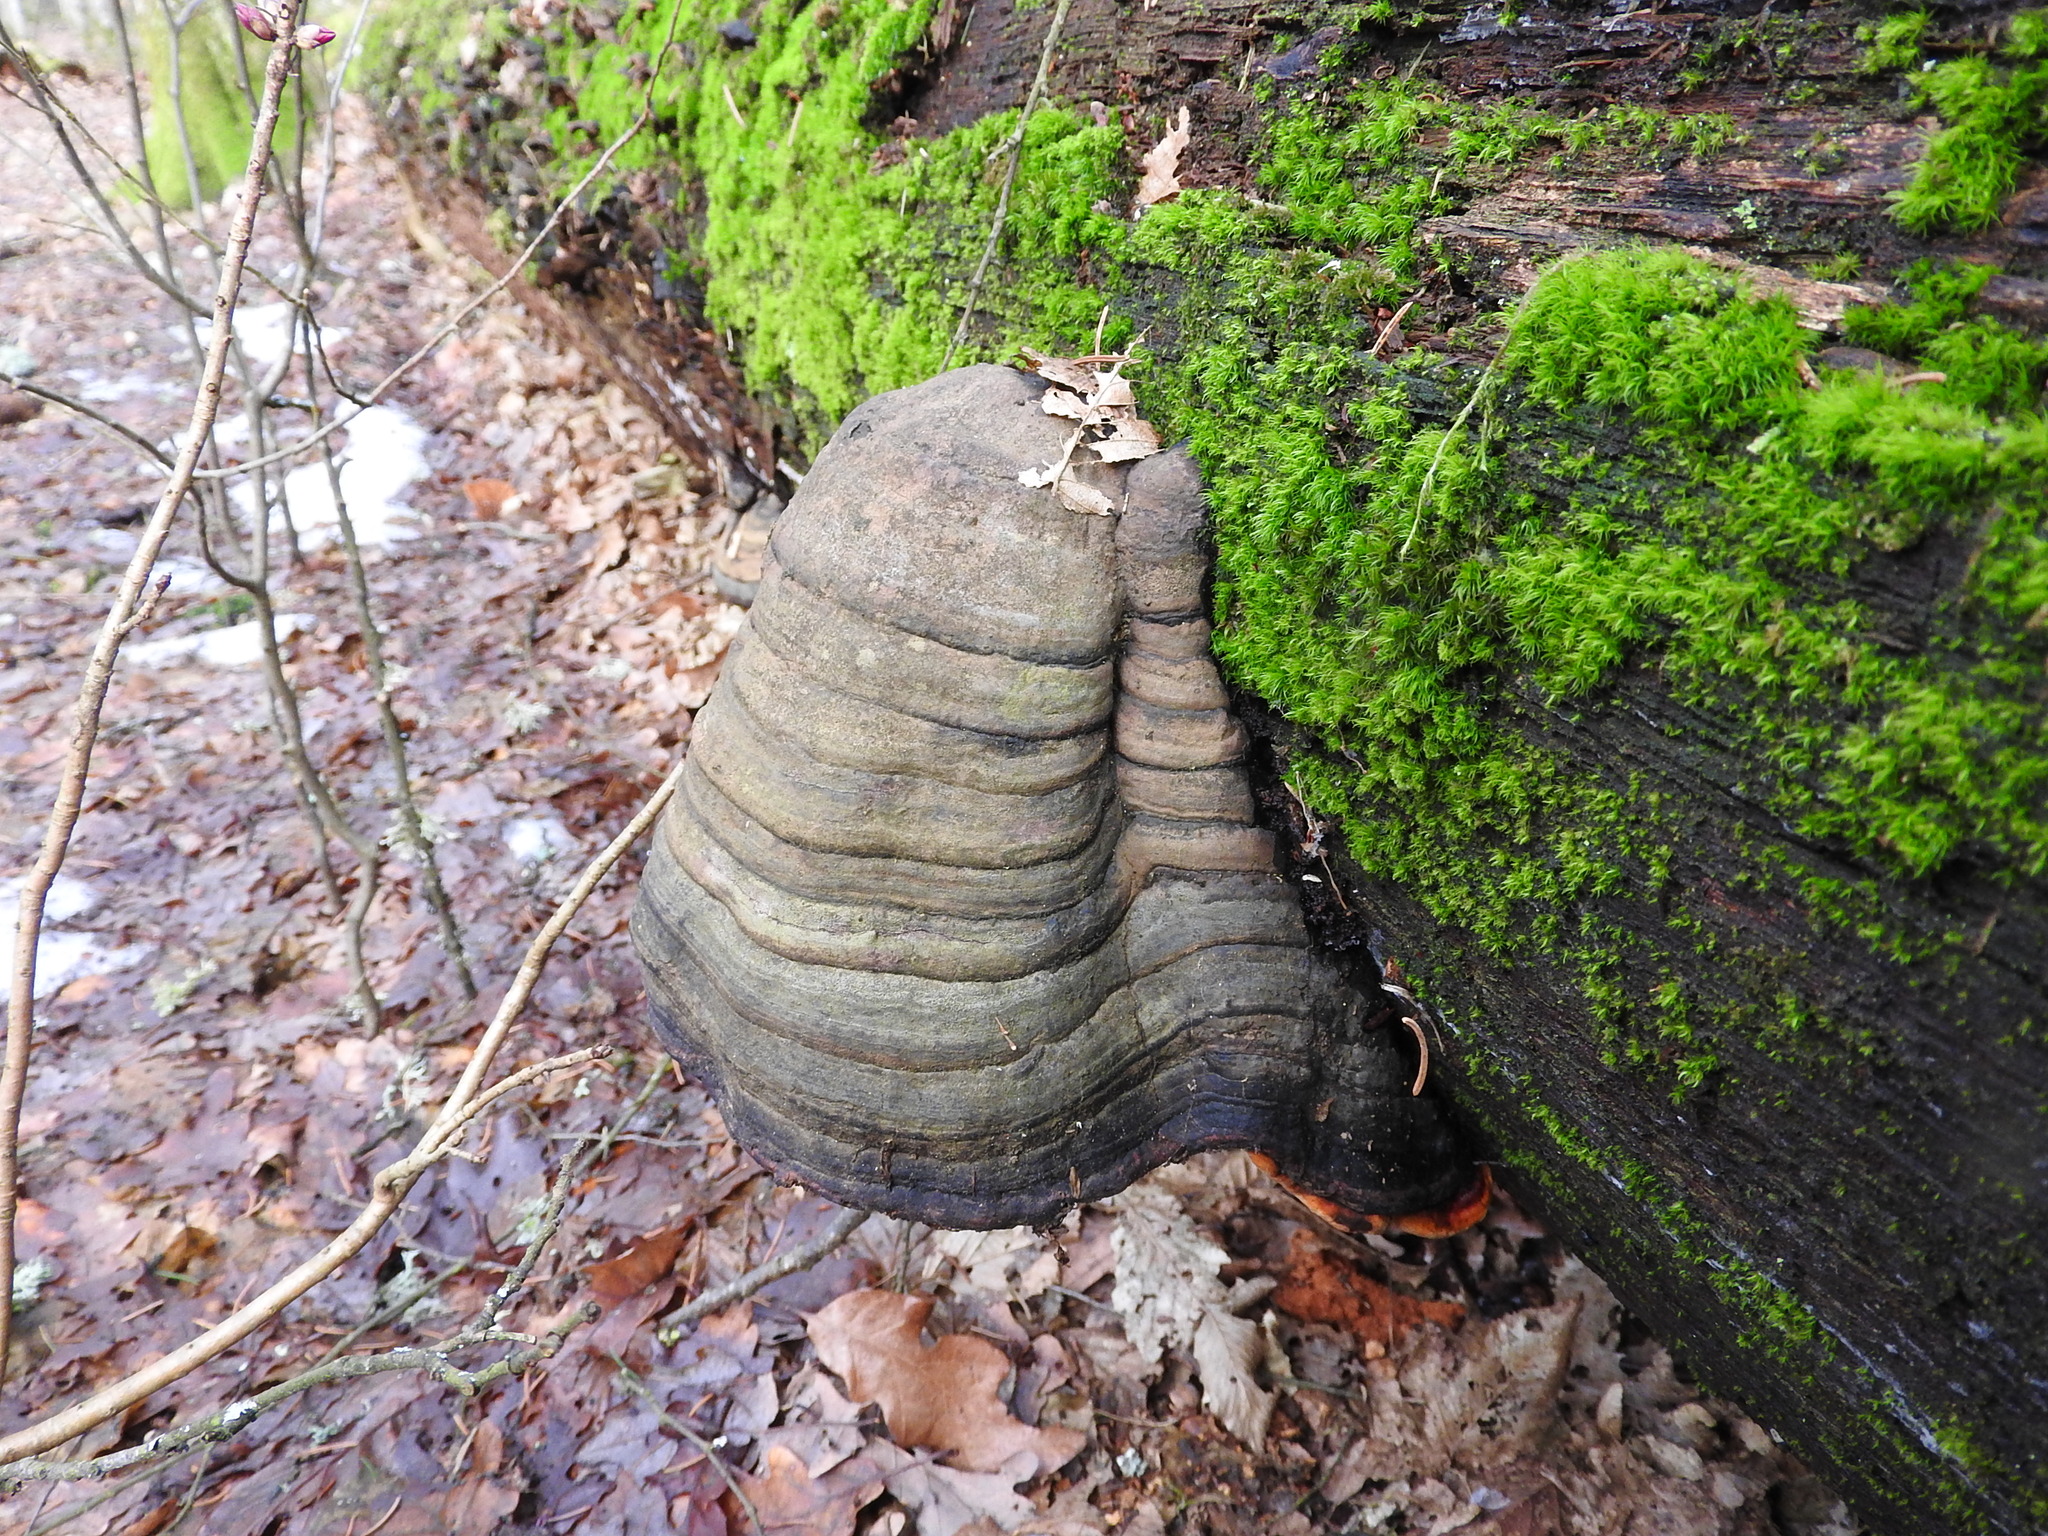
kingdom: Fungi
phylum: Basidiomycota
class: Agaricomycetes
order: Polyporales
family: Fomitopsidaceae
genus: Fomitopsis
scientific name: Fomitopsis pinicola
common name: Red-belted bracket
